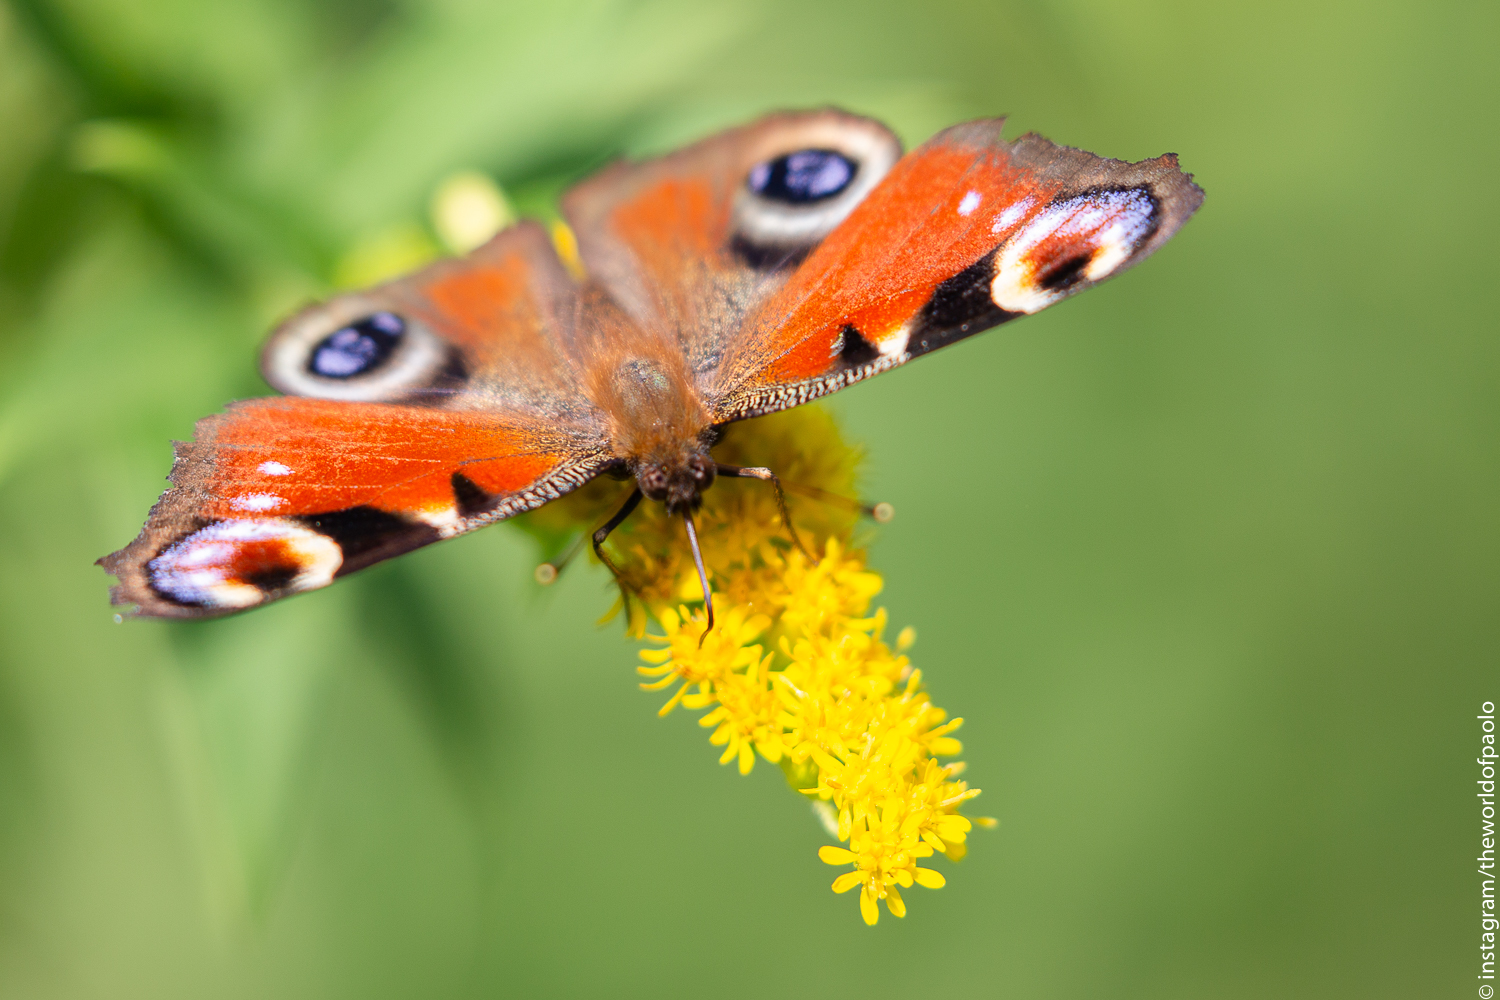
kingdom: Animalia
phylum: Arthropoda
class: Insecta
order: Lepidoptera
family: Nymphalidae
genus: Aglais
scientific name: Aglais io
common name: Peacock
